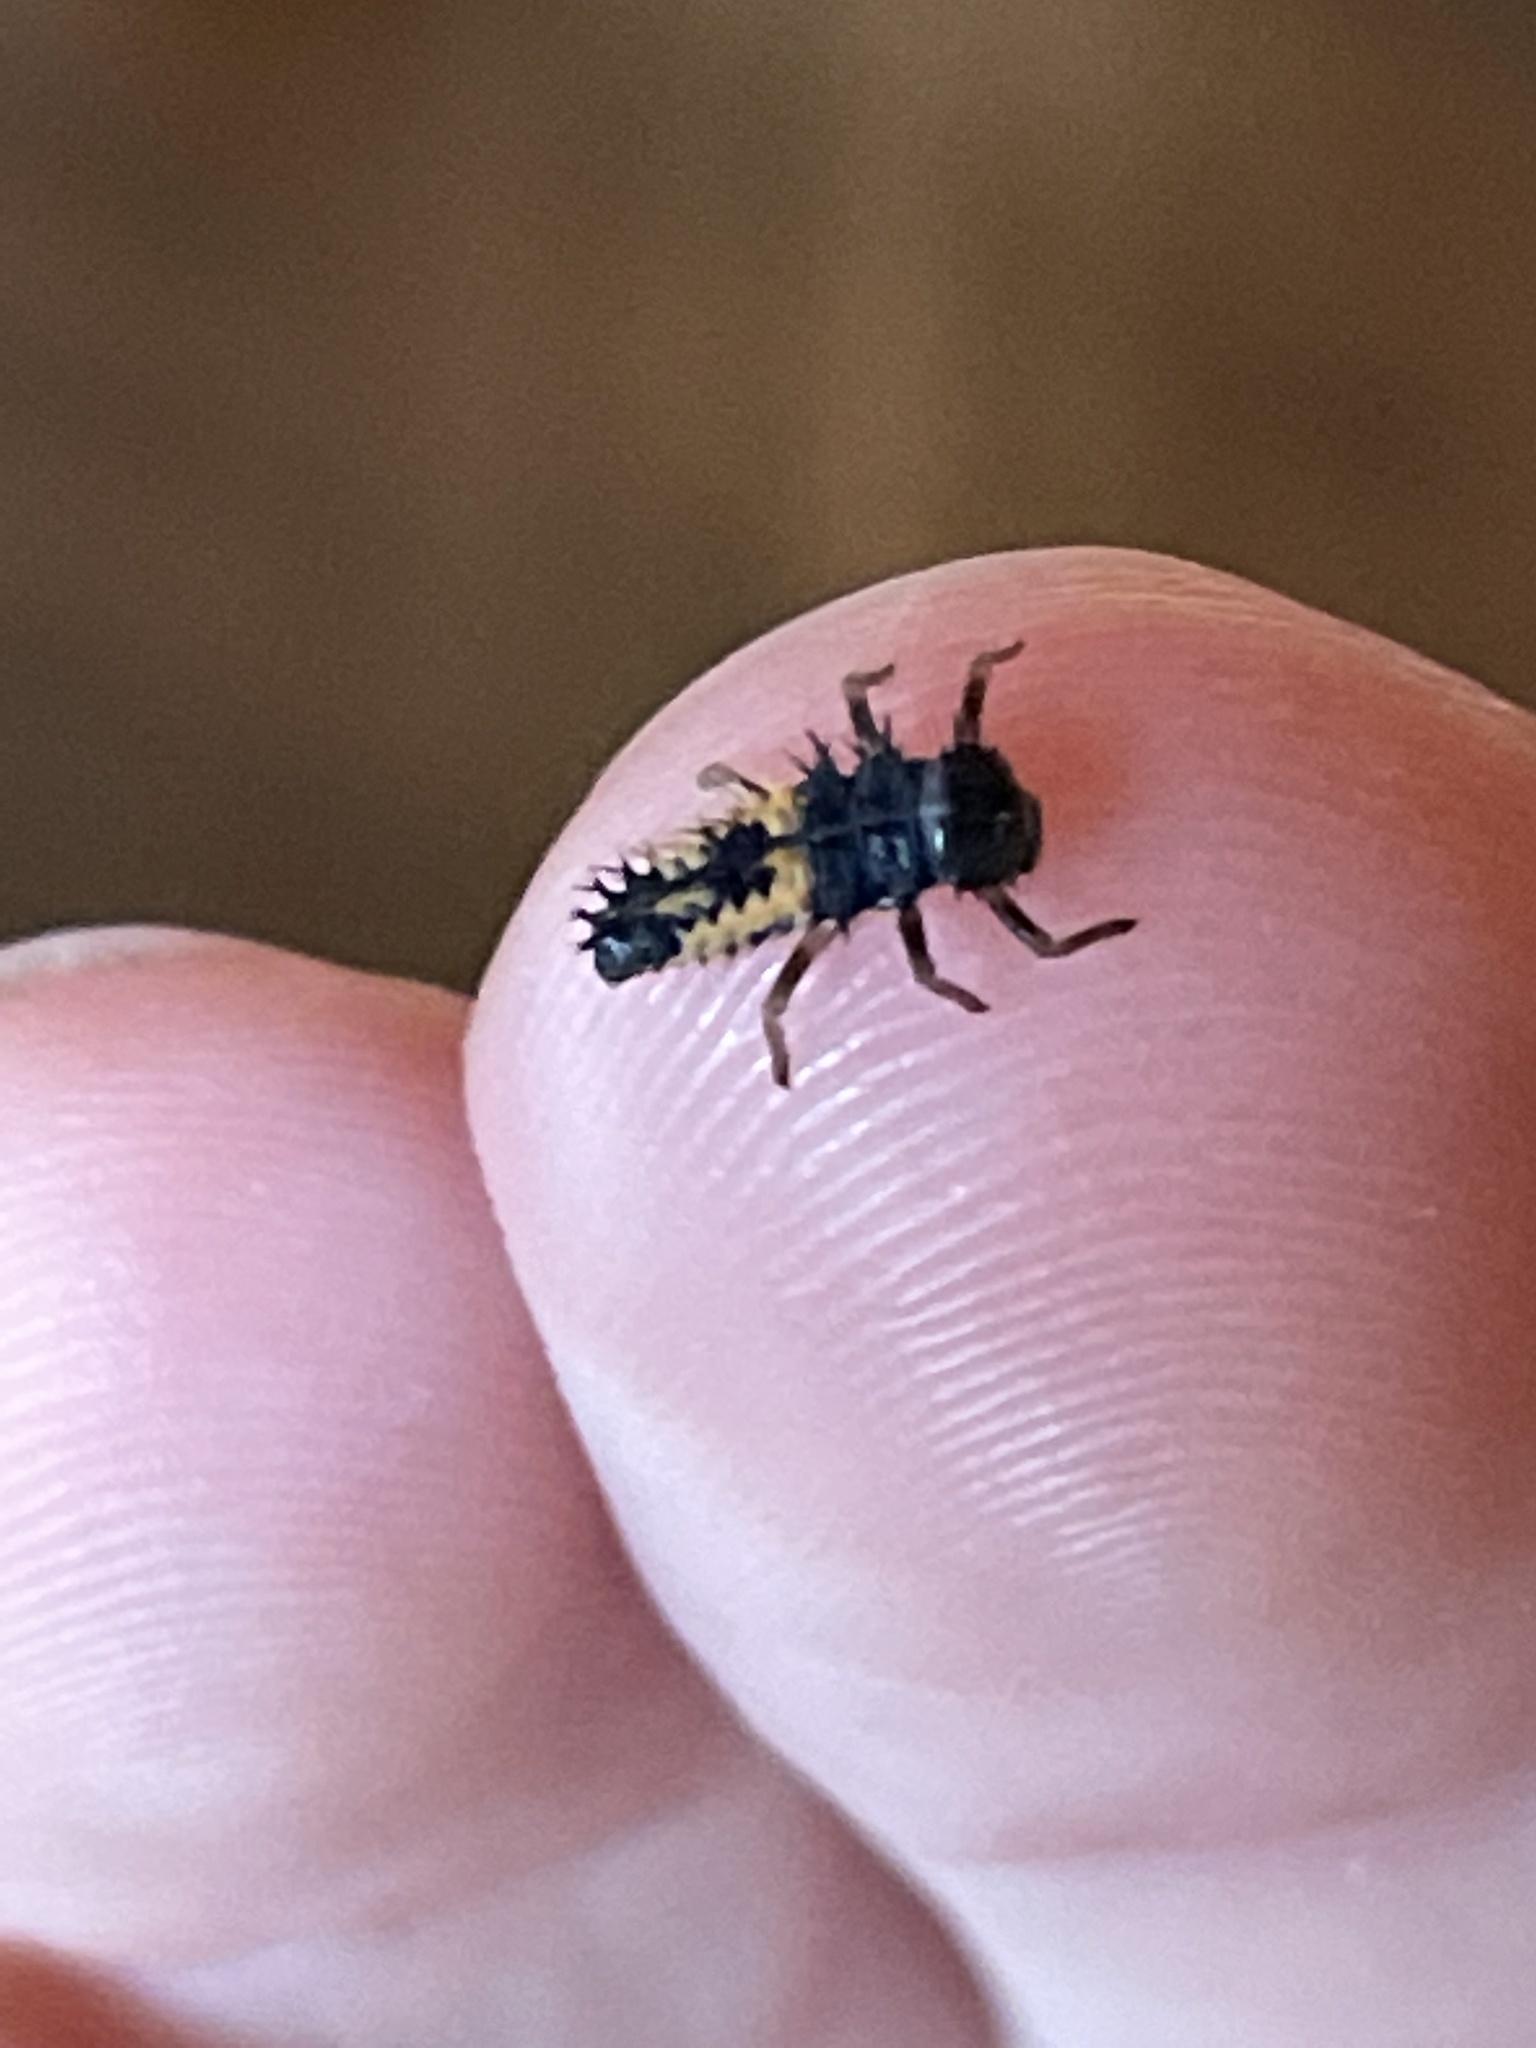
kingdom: Animalia
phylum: Arthropoda
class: Insecta
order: Coleoptera
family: Coccinellidae
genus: Harmonia
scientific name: Harmonia axyridis
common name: Harlequin ladybird
